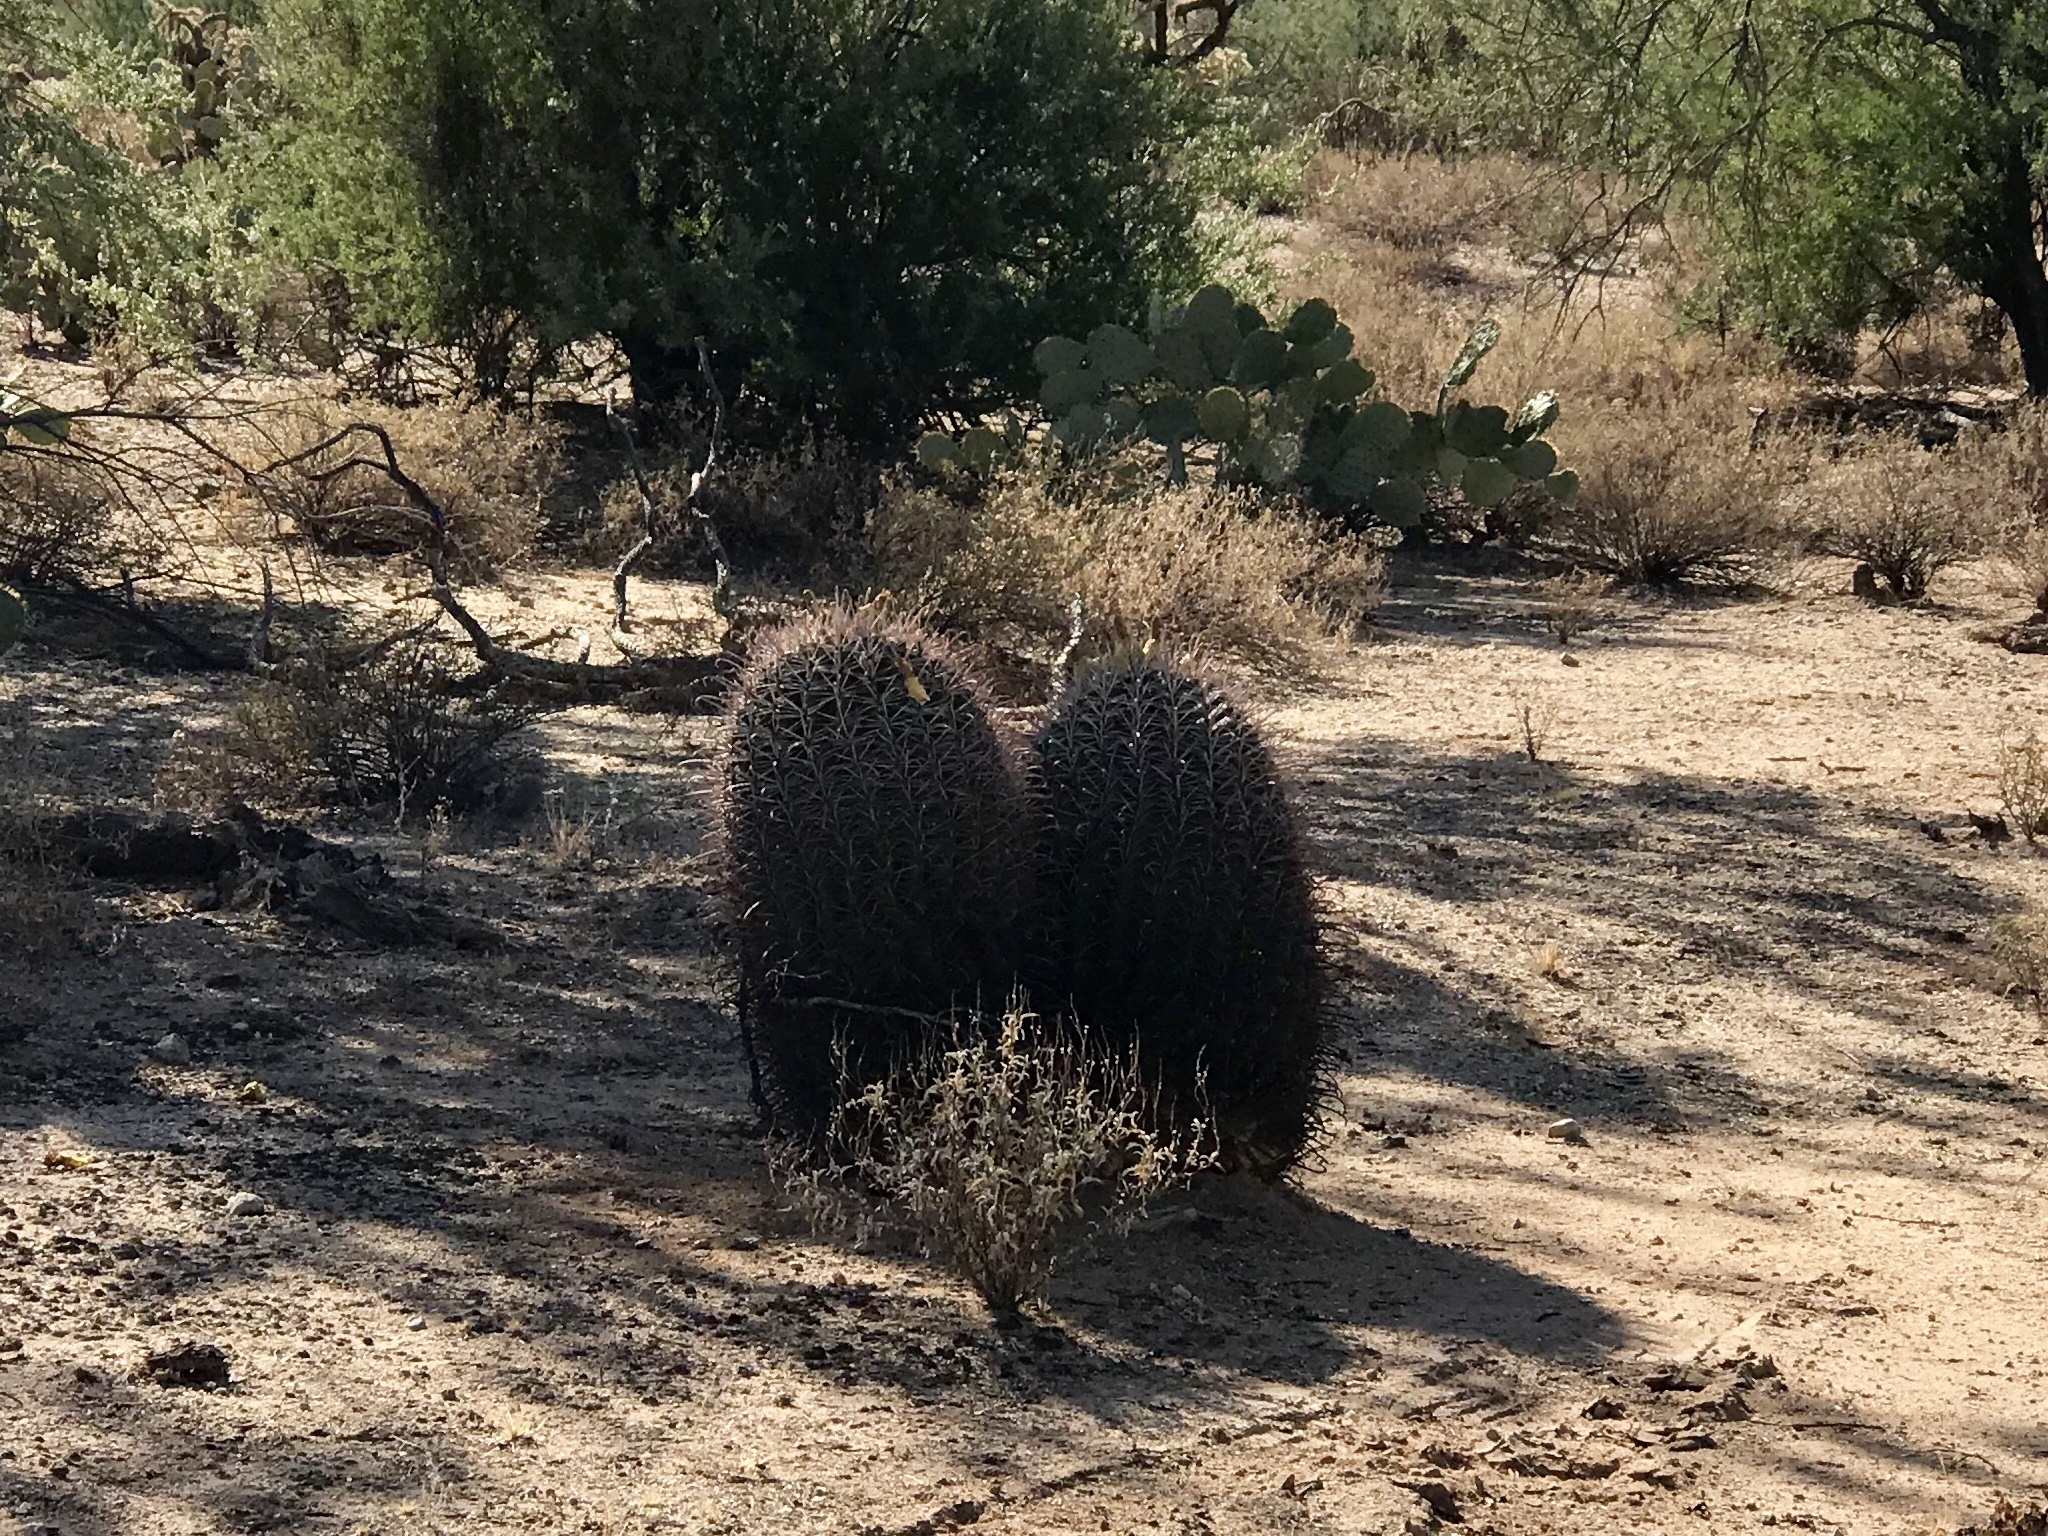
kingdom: Plantae
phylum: Tracheophyta
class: Magnoliopsida
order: Caryophyllales
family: Cactaceae
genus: Ferocactus
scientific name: Ferocactus wislizeni
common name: Candy barrel cactus
